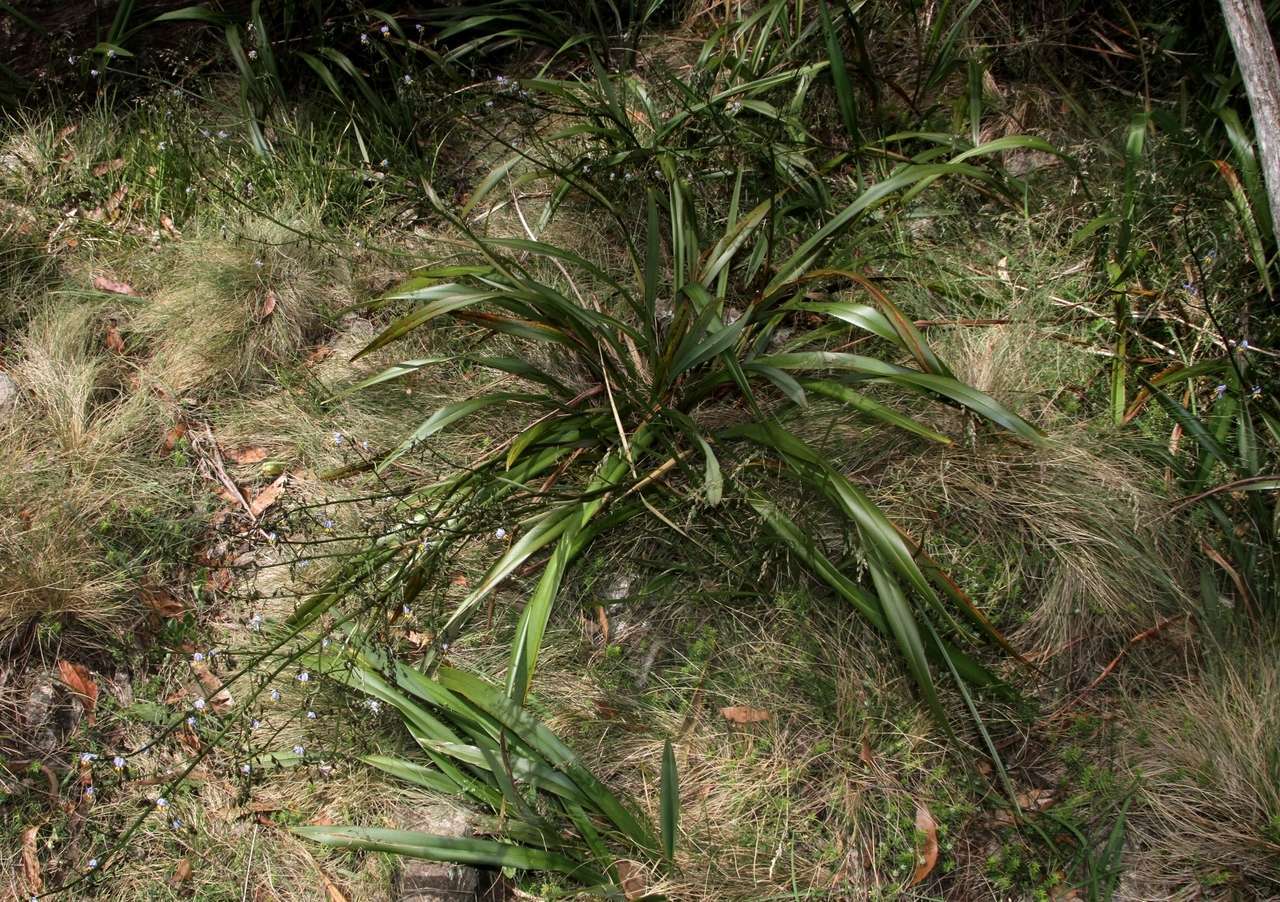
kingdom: Plantae
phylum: Tracheophyta
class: Liliopsida
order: Asparagales
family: Asphodelaceae
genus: Dianella
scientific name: Dianella tasmanica
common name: Tasman flax-lily
